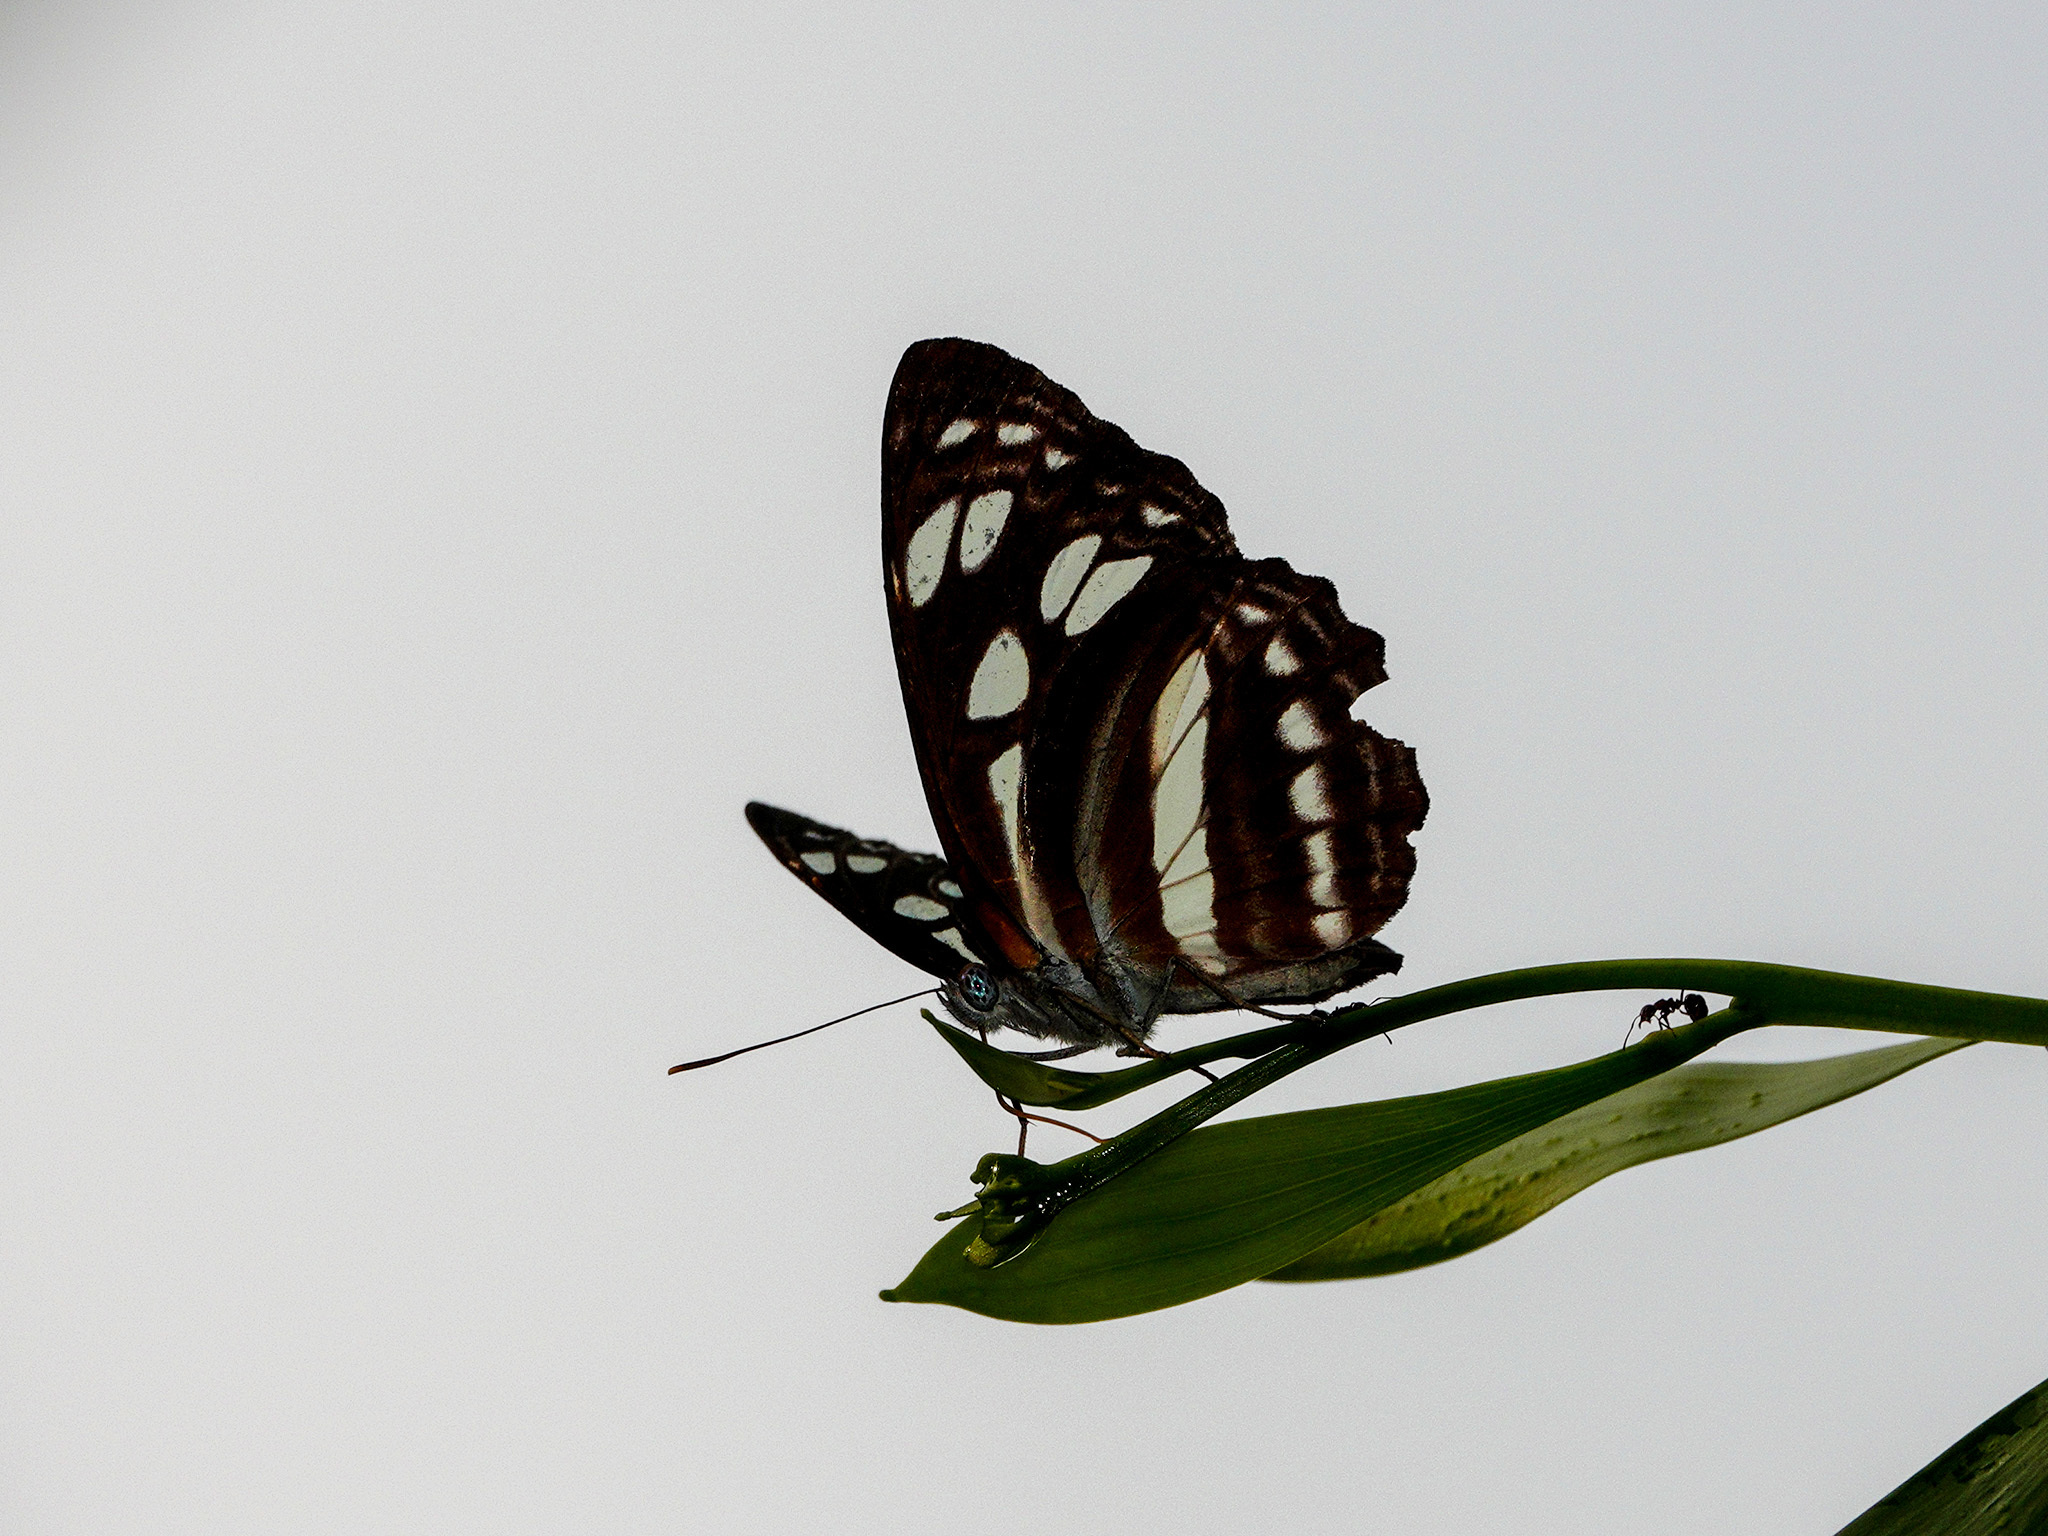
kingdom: Animalia
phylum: Arthropoda
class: Insecta
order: Lepidoptera
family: Nymphalidae
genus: Phaedyma
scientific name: Phaedyma columella
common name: Short banded sailer
